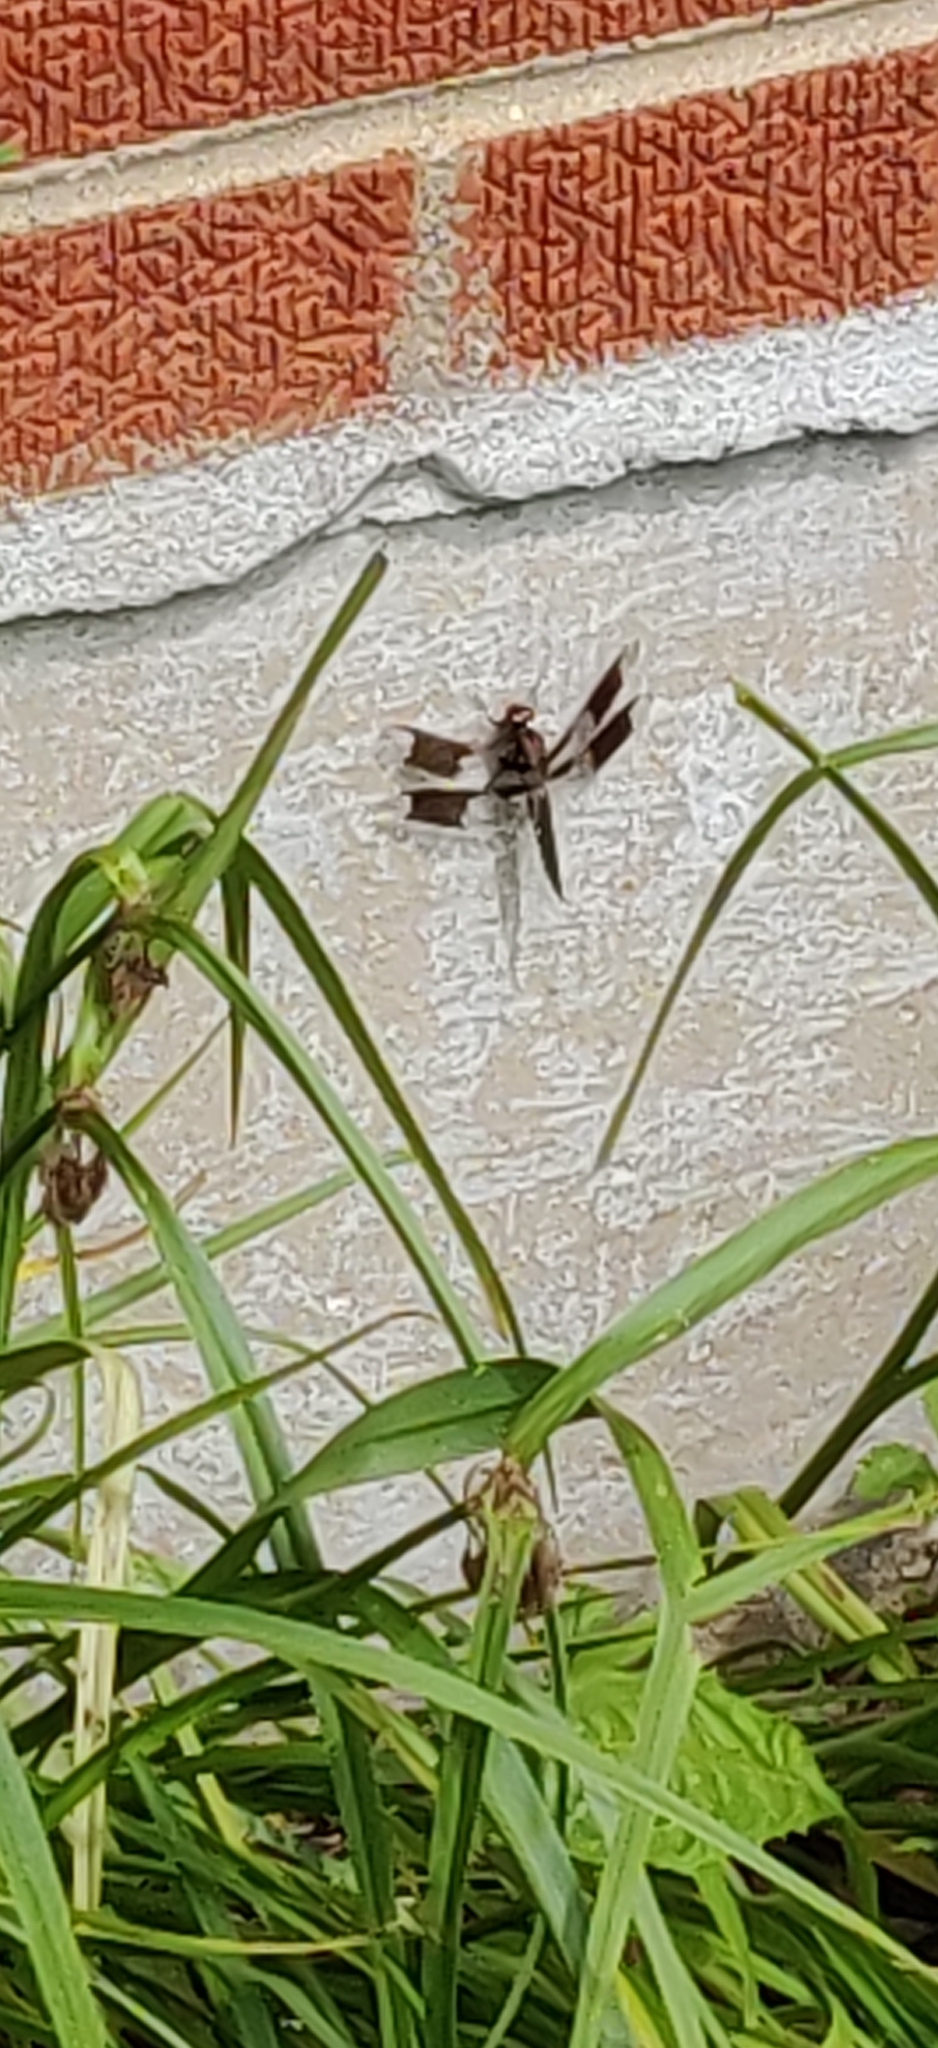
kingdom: Animalia
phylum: Arthropoda
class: Insecta
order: Odonata
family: Libellulidae
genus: Plathemis
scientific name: Plathemis lydia
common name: Common whitetail
